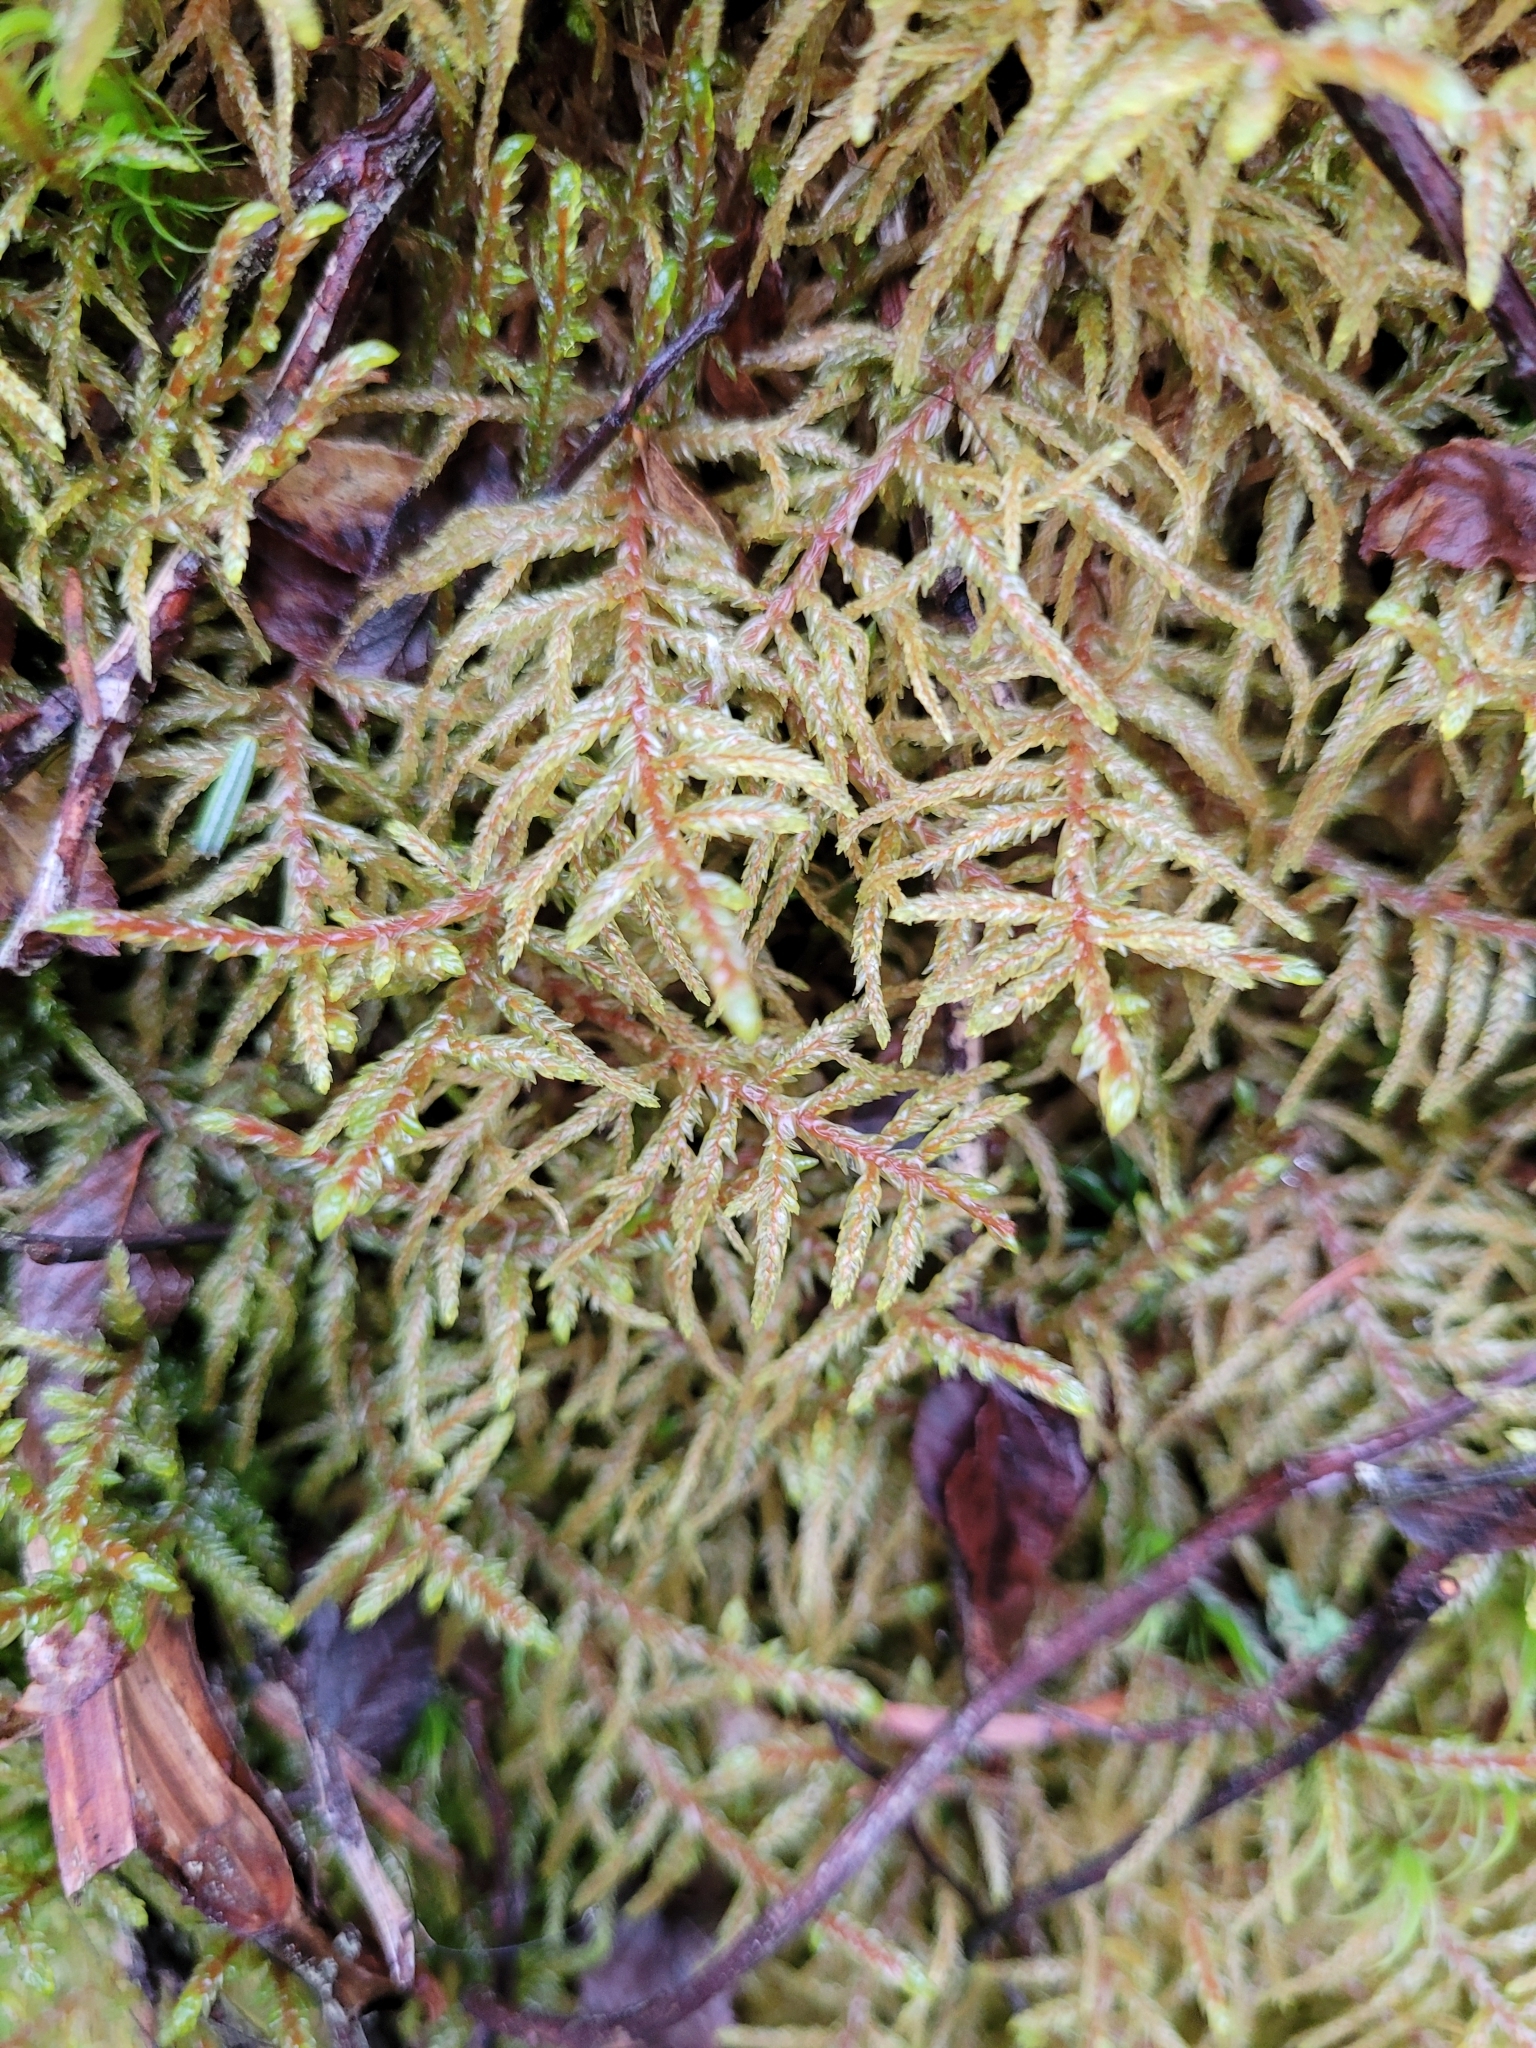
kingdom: Plantae
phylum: Bryophyta
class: Bryopsida
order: Hypnales
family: Hylocomiaceae
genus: Pleurozium
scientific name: Pleurozium schreberi
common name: Red-stemmed feather moss
